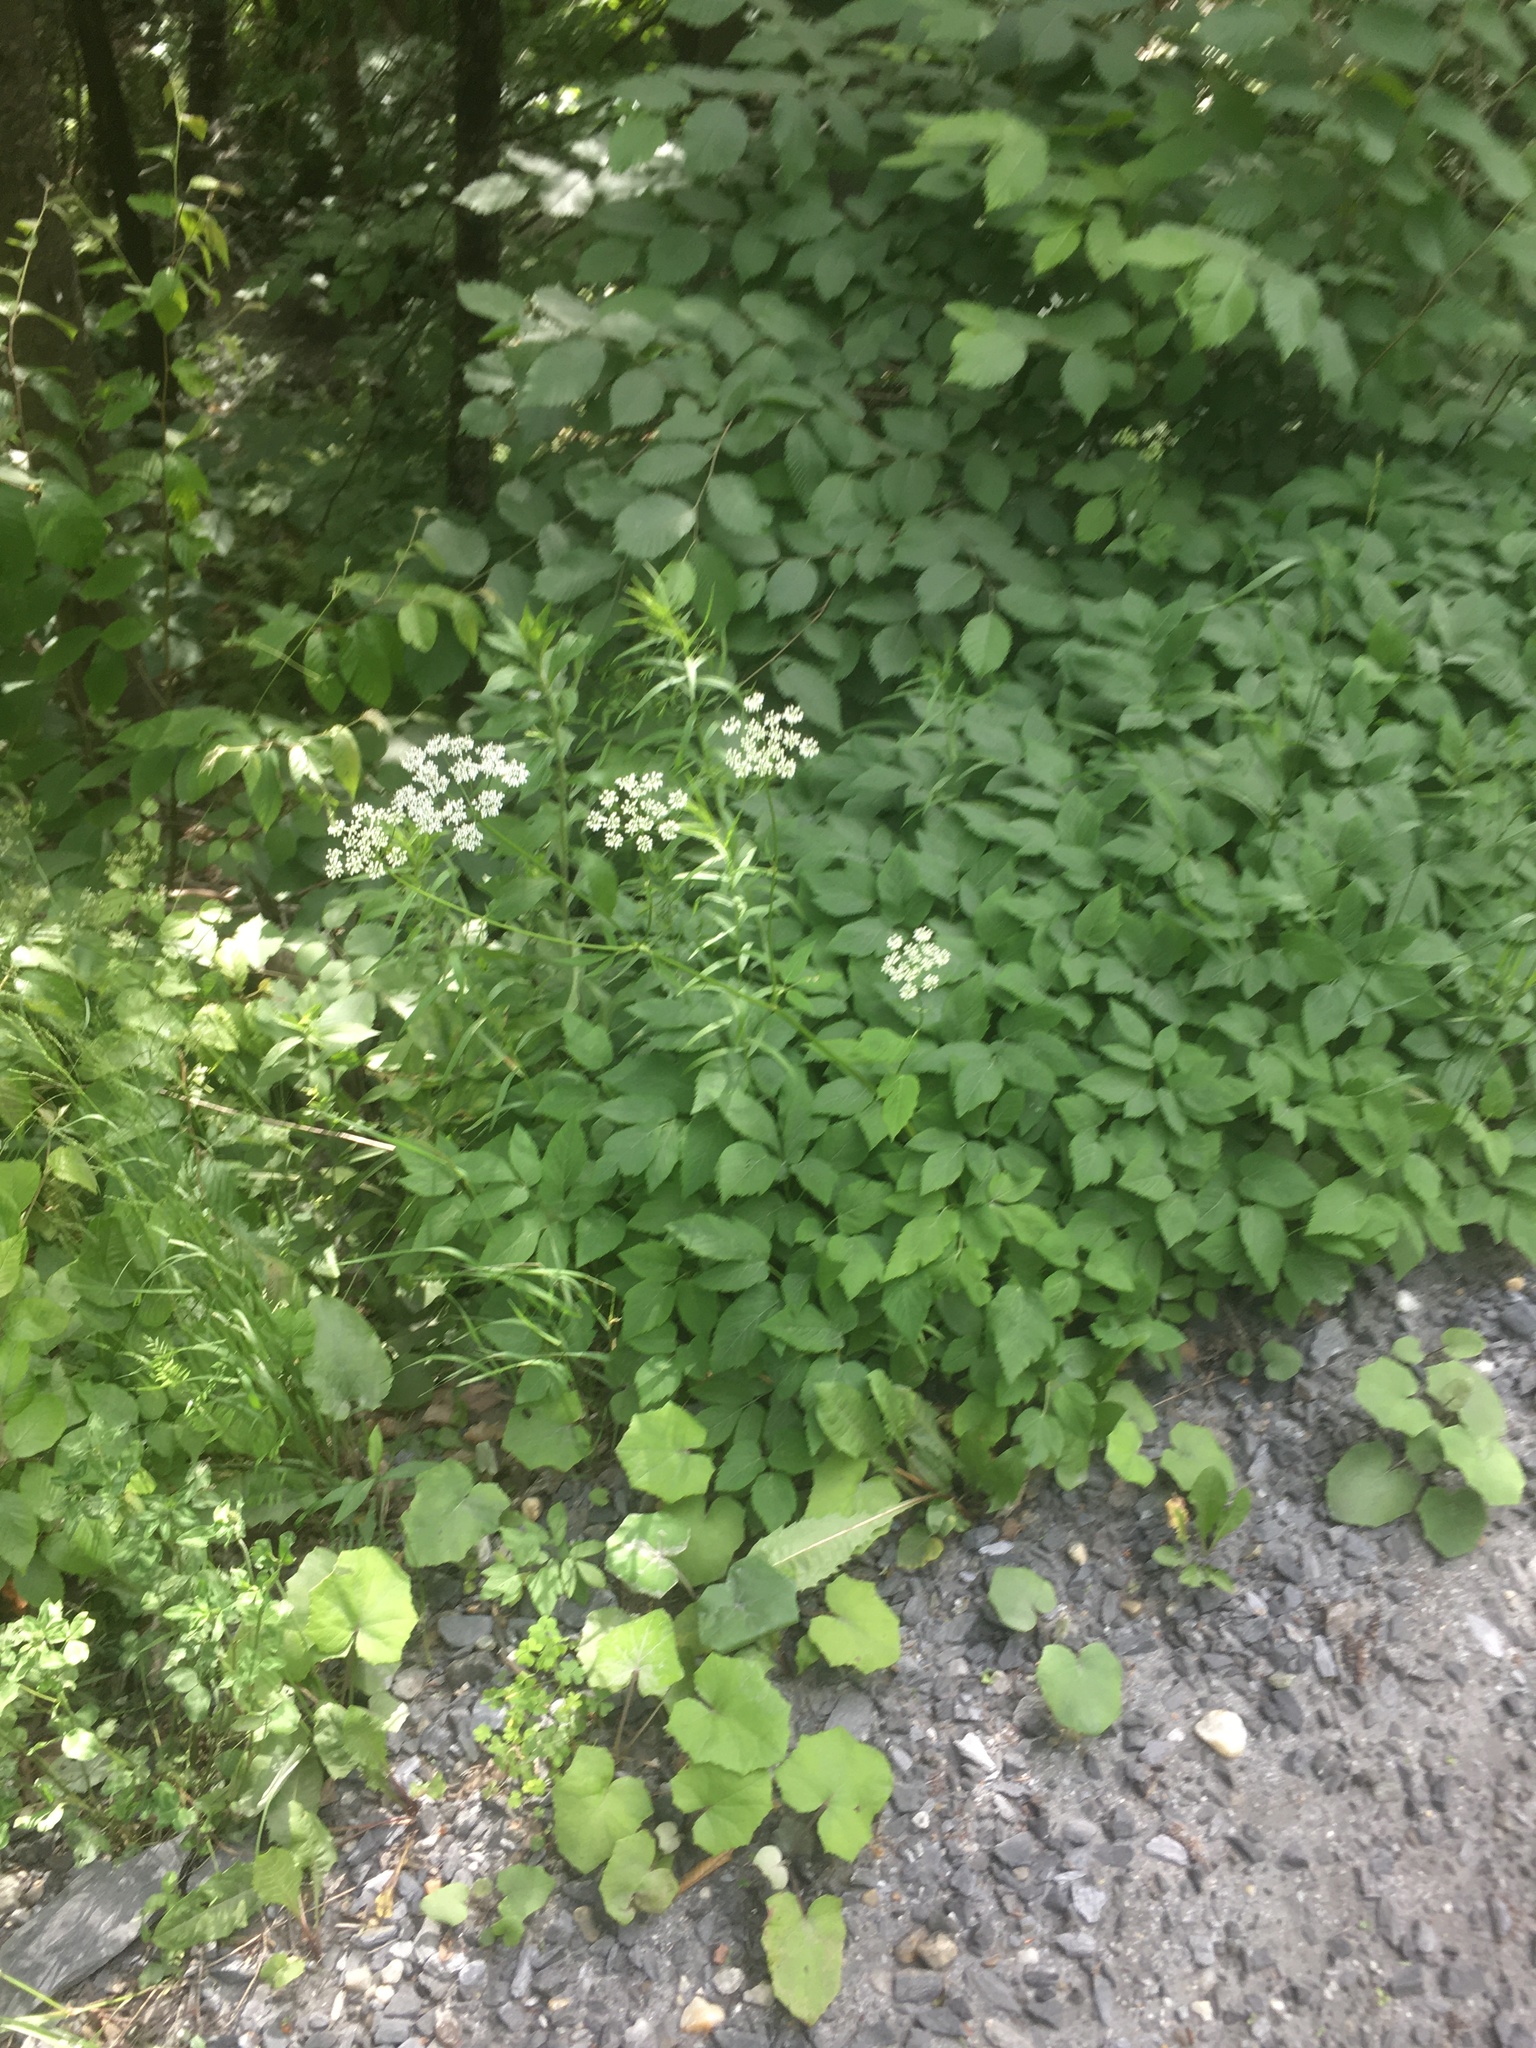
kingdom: Plantae
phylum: Tracheophyta
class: Magnoliopsida
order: Apiales
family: Apiaceae
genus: Aegopodium
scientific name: Aegopodium podagraria
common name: Ground-elder
